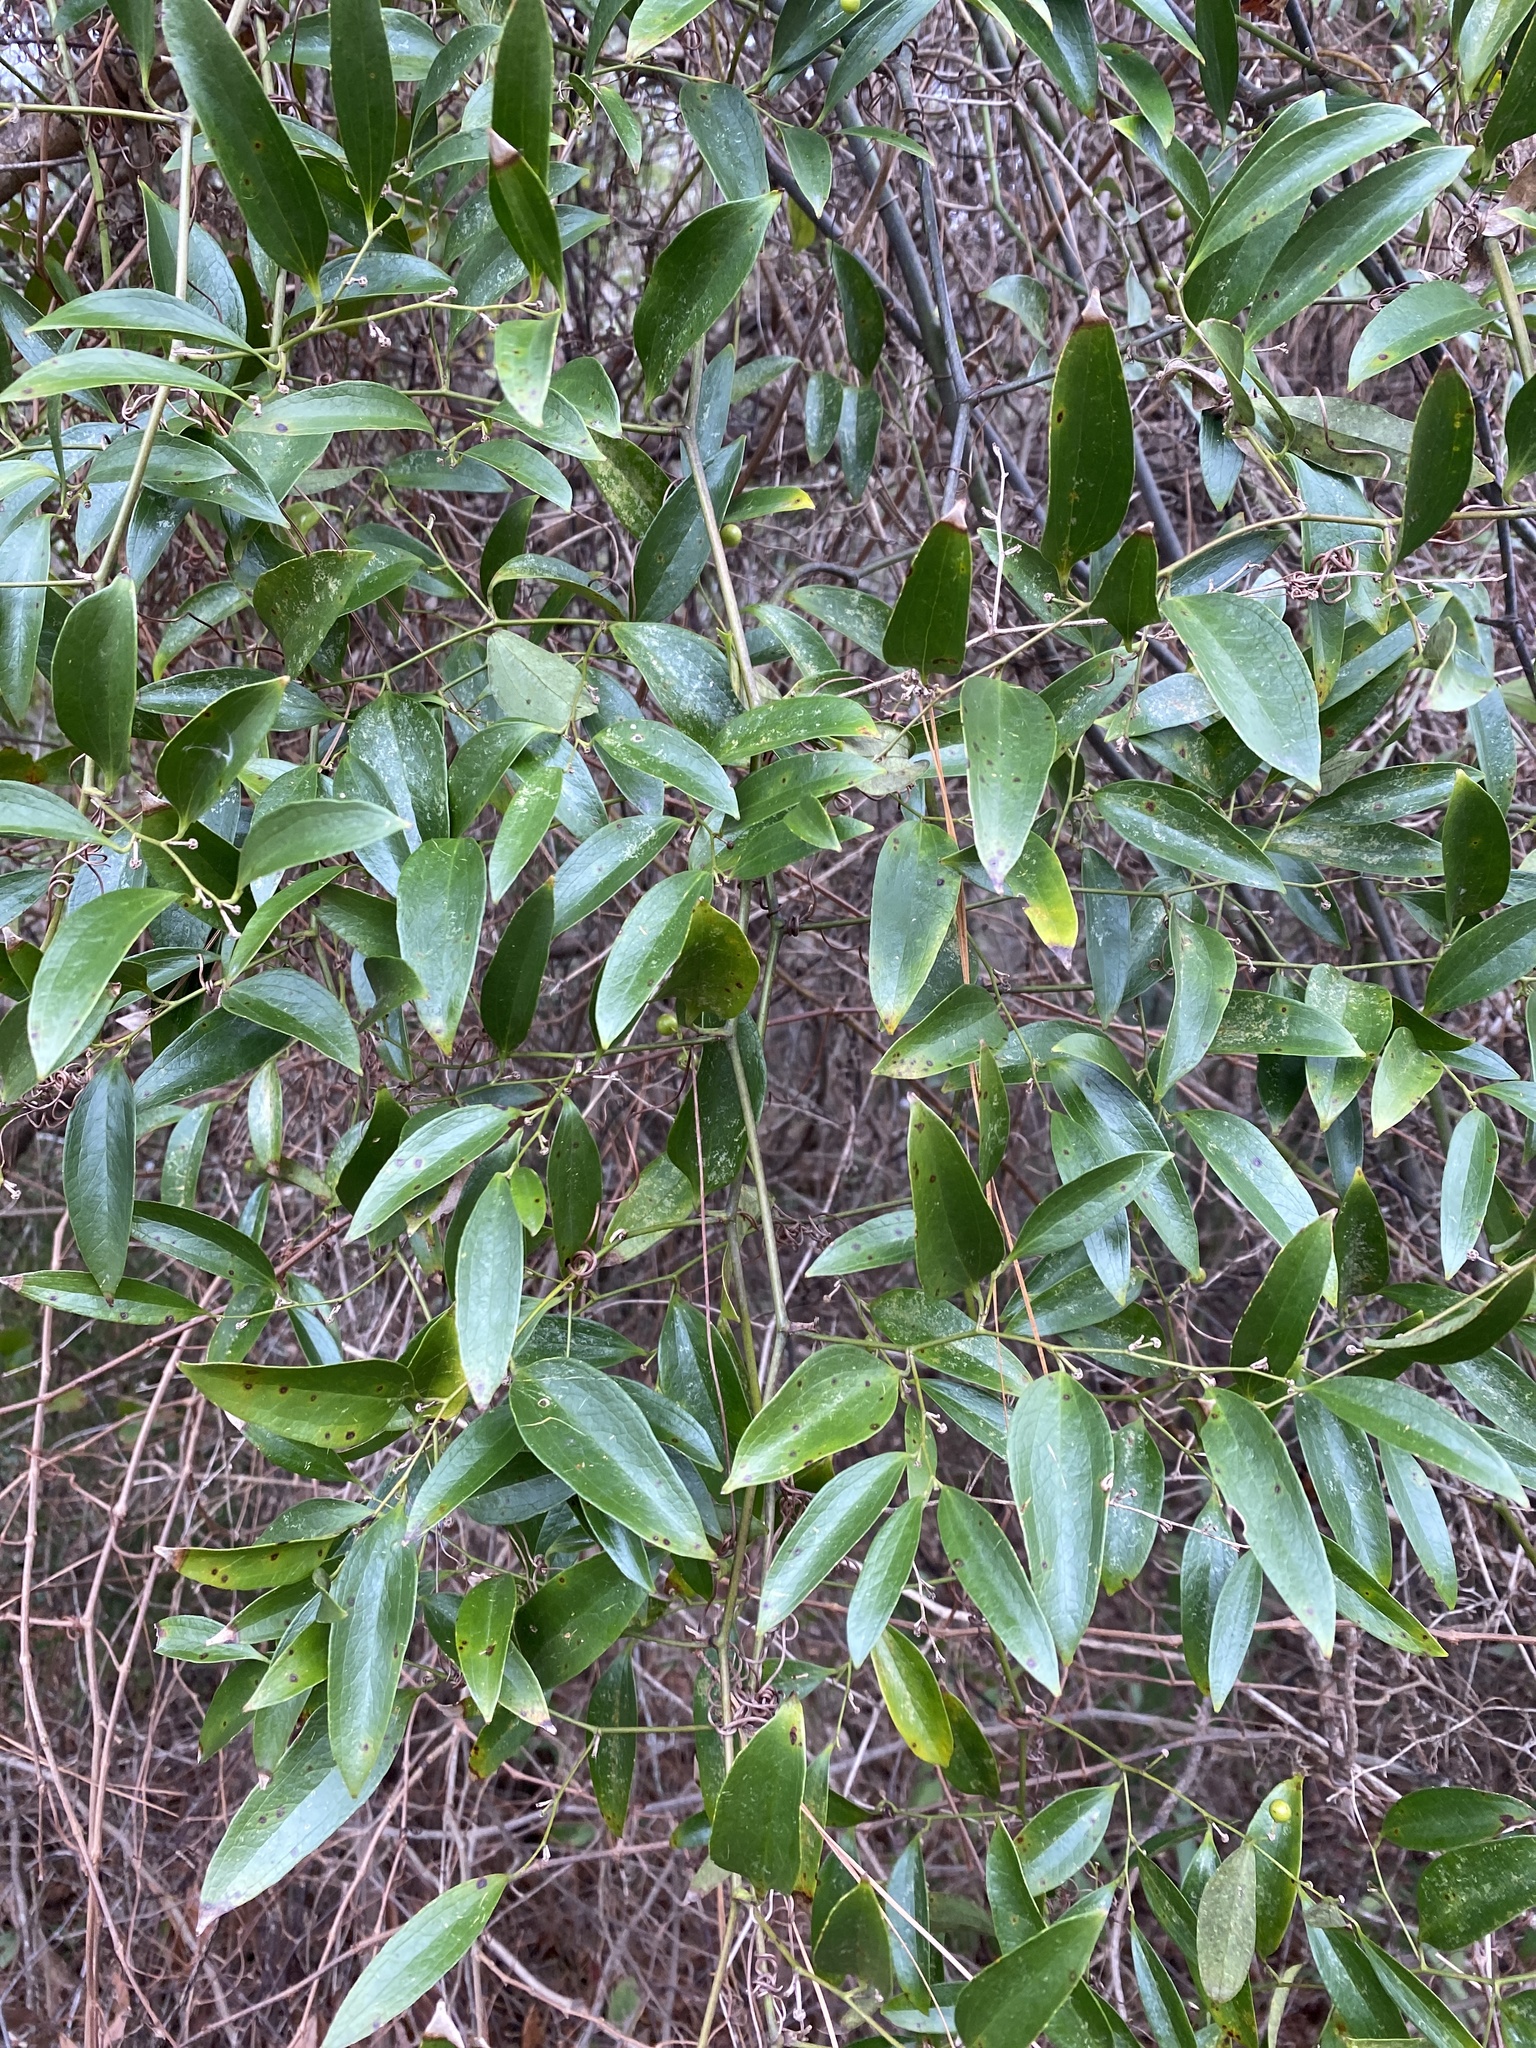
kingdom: Plantae
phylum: Tracheophyta
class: Liliopsida
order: Liliales
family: Smilacaceae
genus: Smilax
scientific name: Smilax maritima
